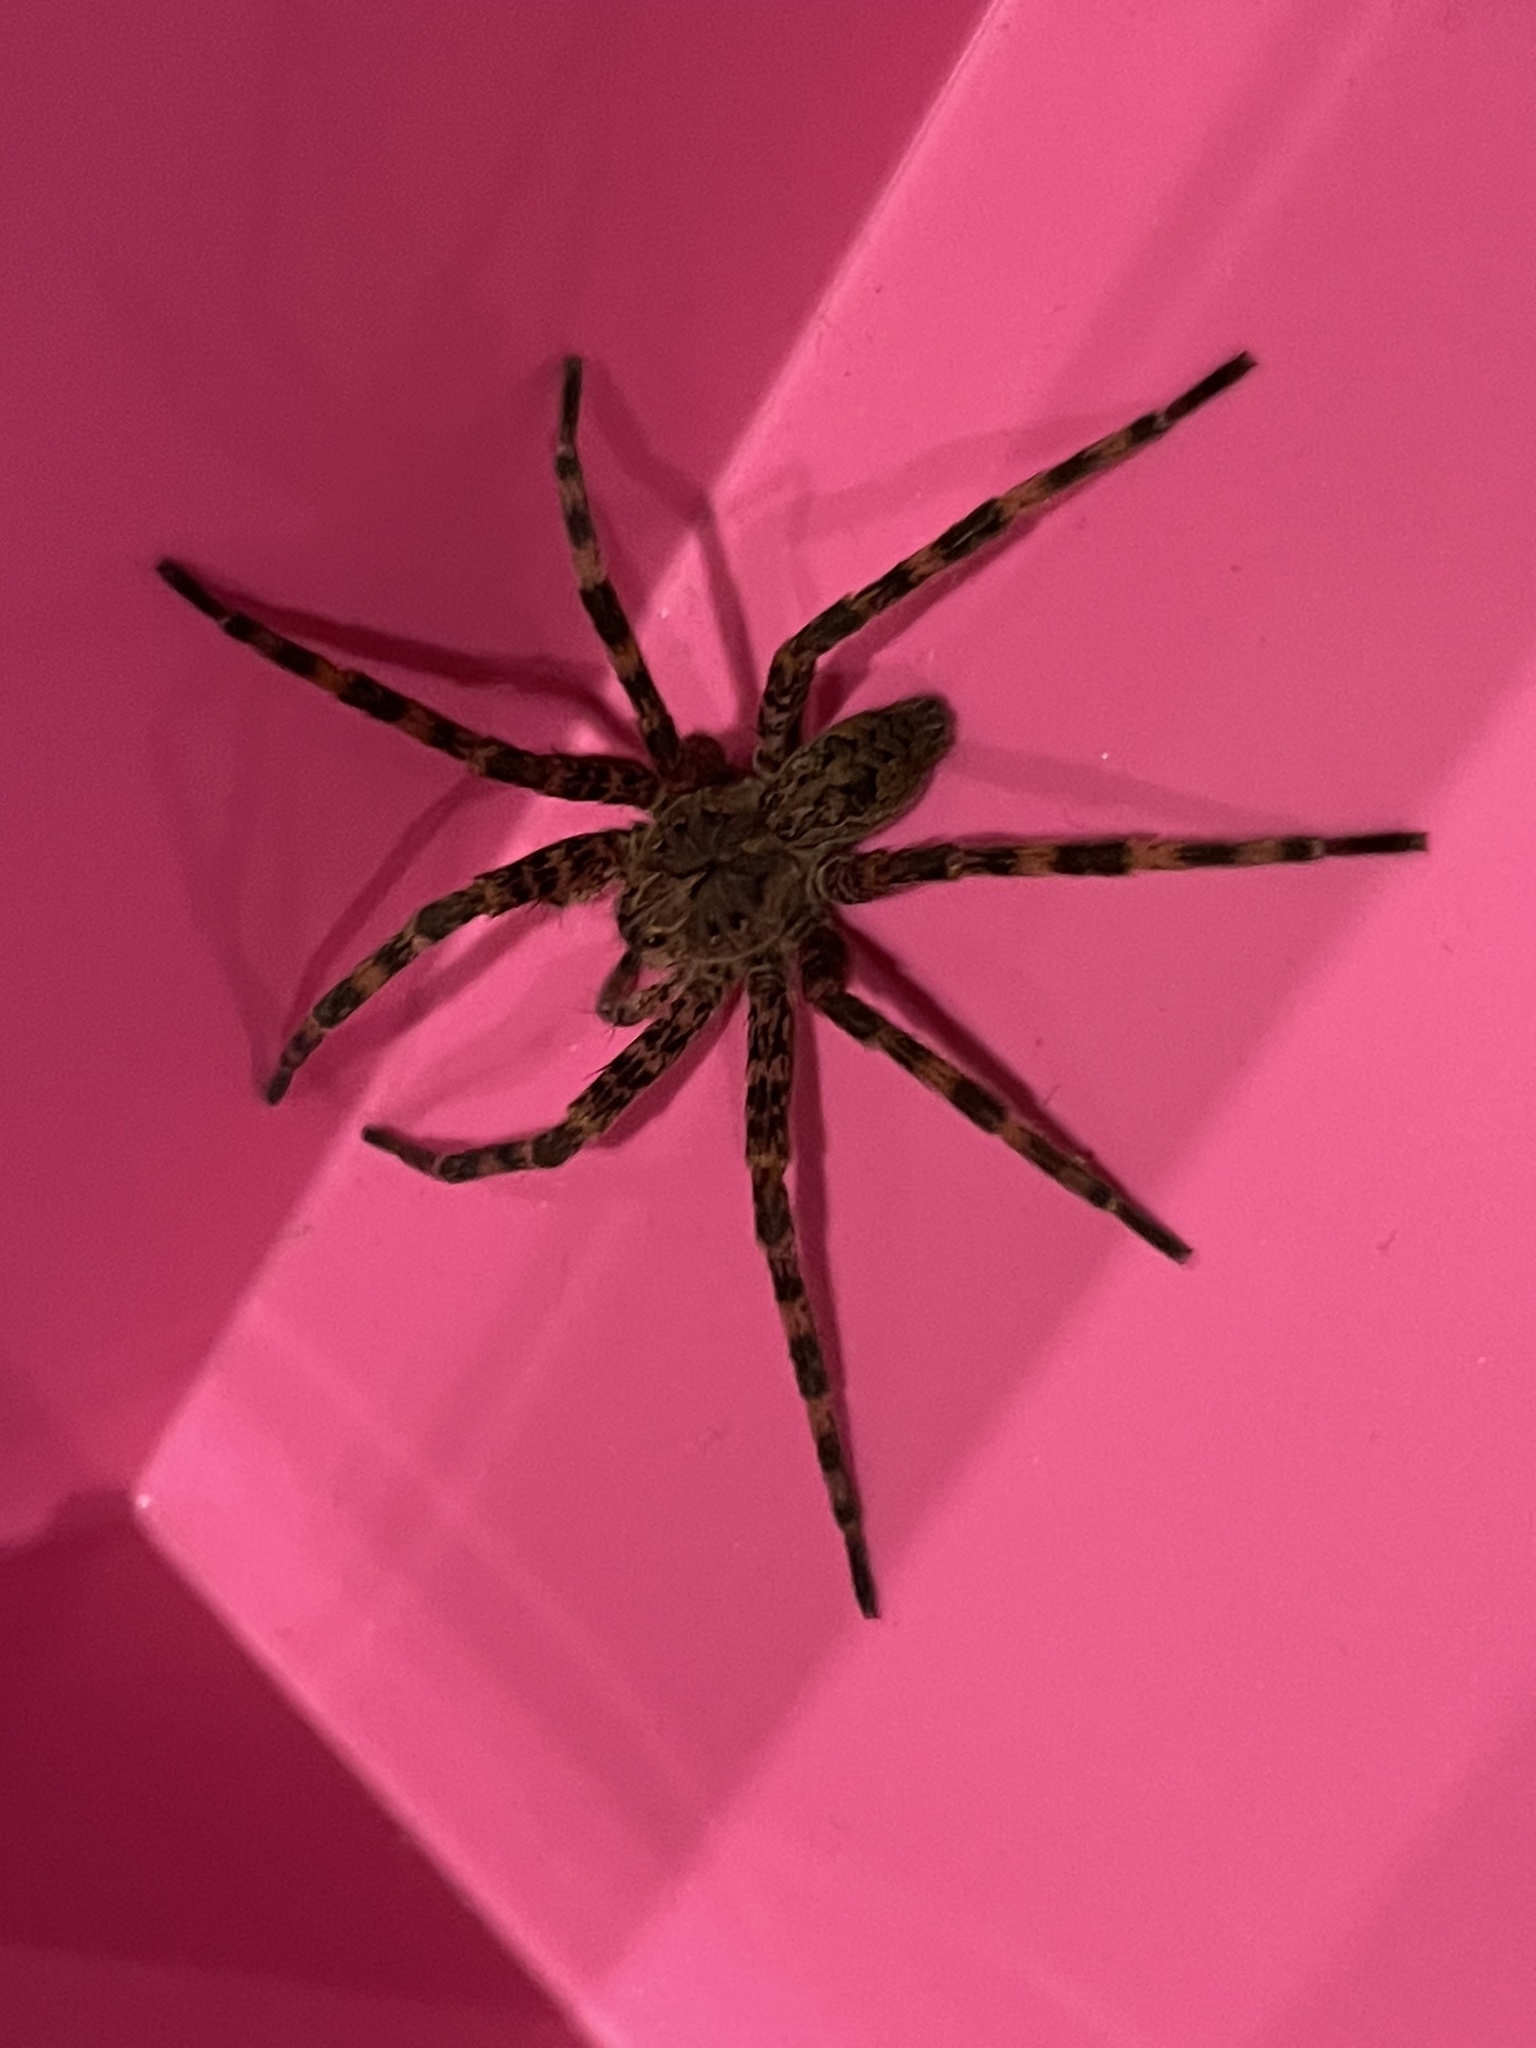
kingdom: Animalia
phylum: Arthropoda
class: Arachnida
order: Araneae
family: Pisauridae
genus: Dolomedes
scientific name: Dolomedes tenebrosus
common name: Dark fishing spider
